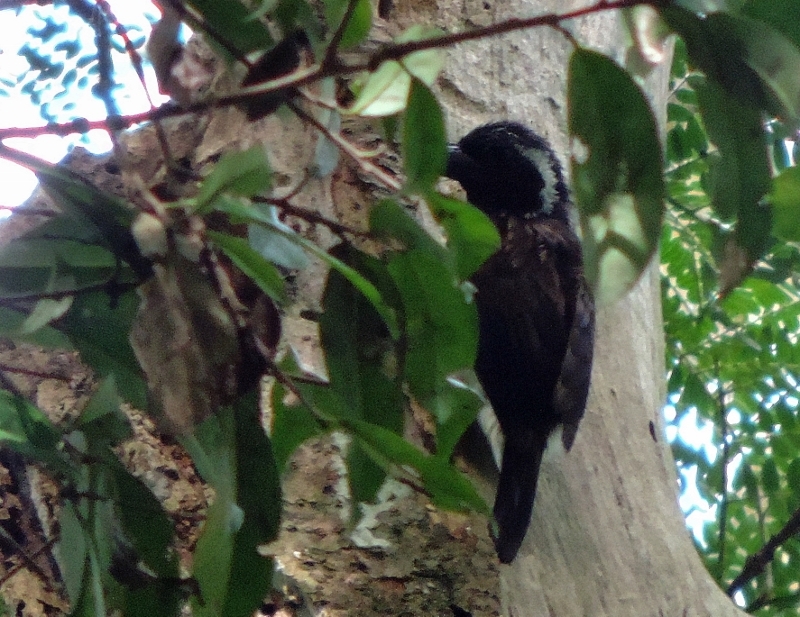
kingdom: Animalia
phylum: Chordata
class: Aves
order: Piciformes
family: Lybiidae
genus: Stactolaema
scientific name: Stactolaema leucotis
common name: White-eared barbet
